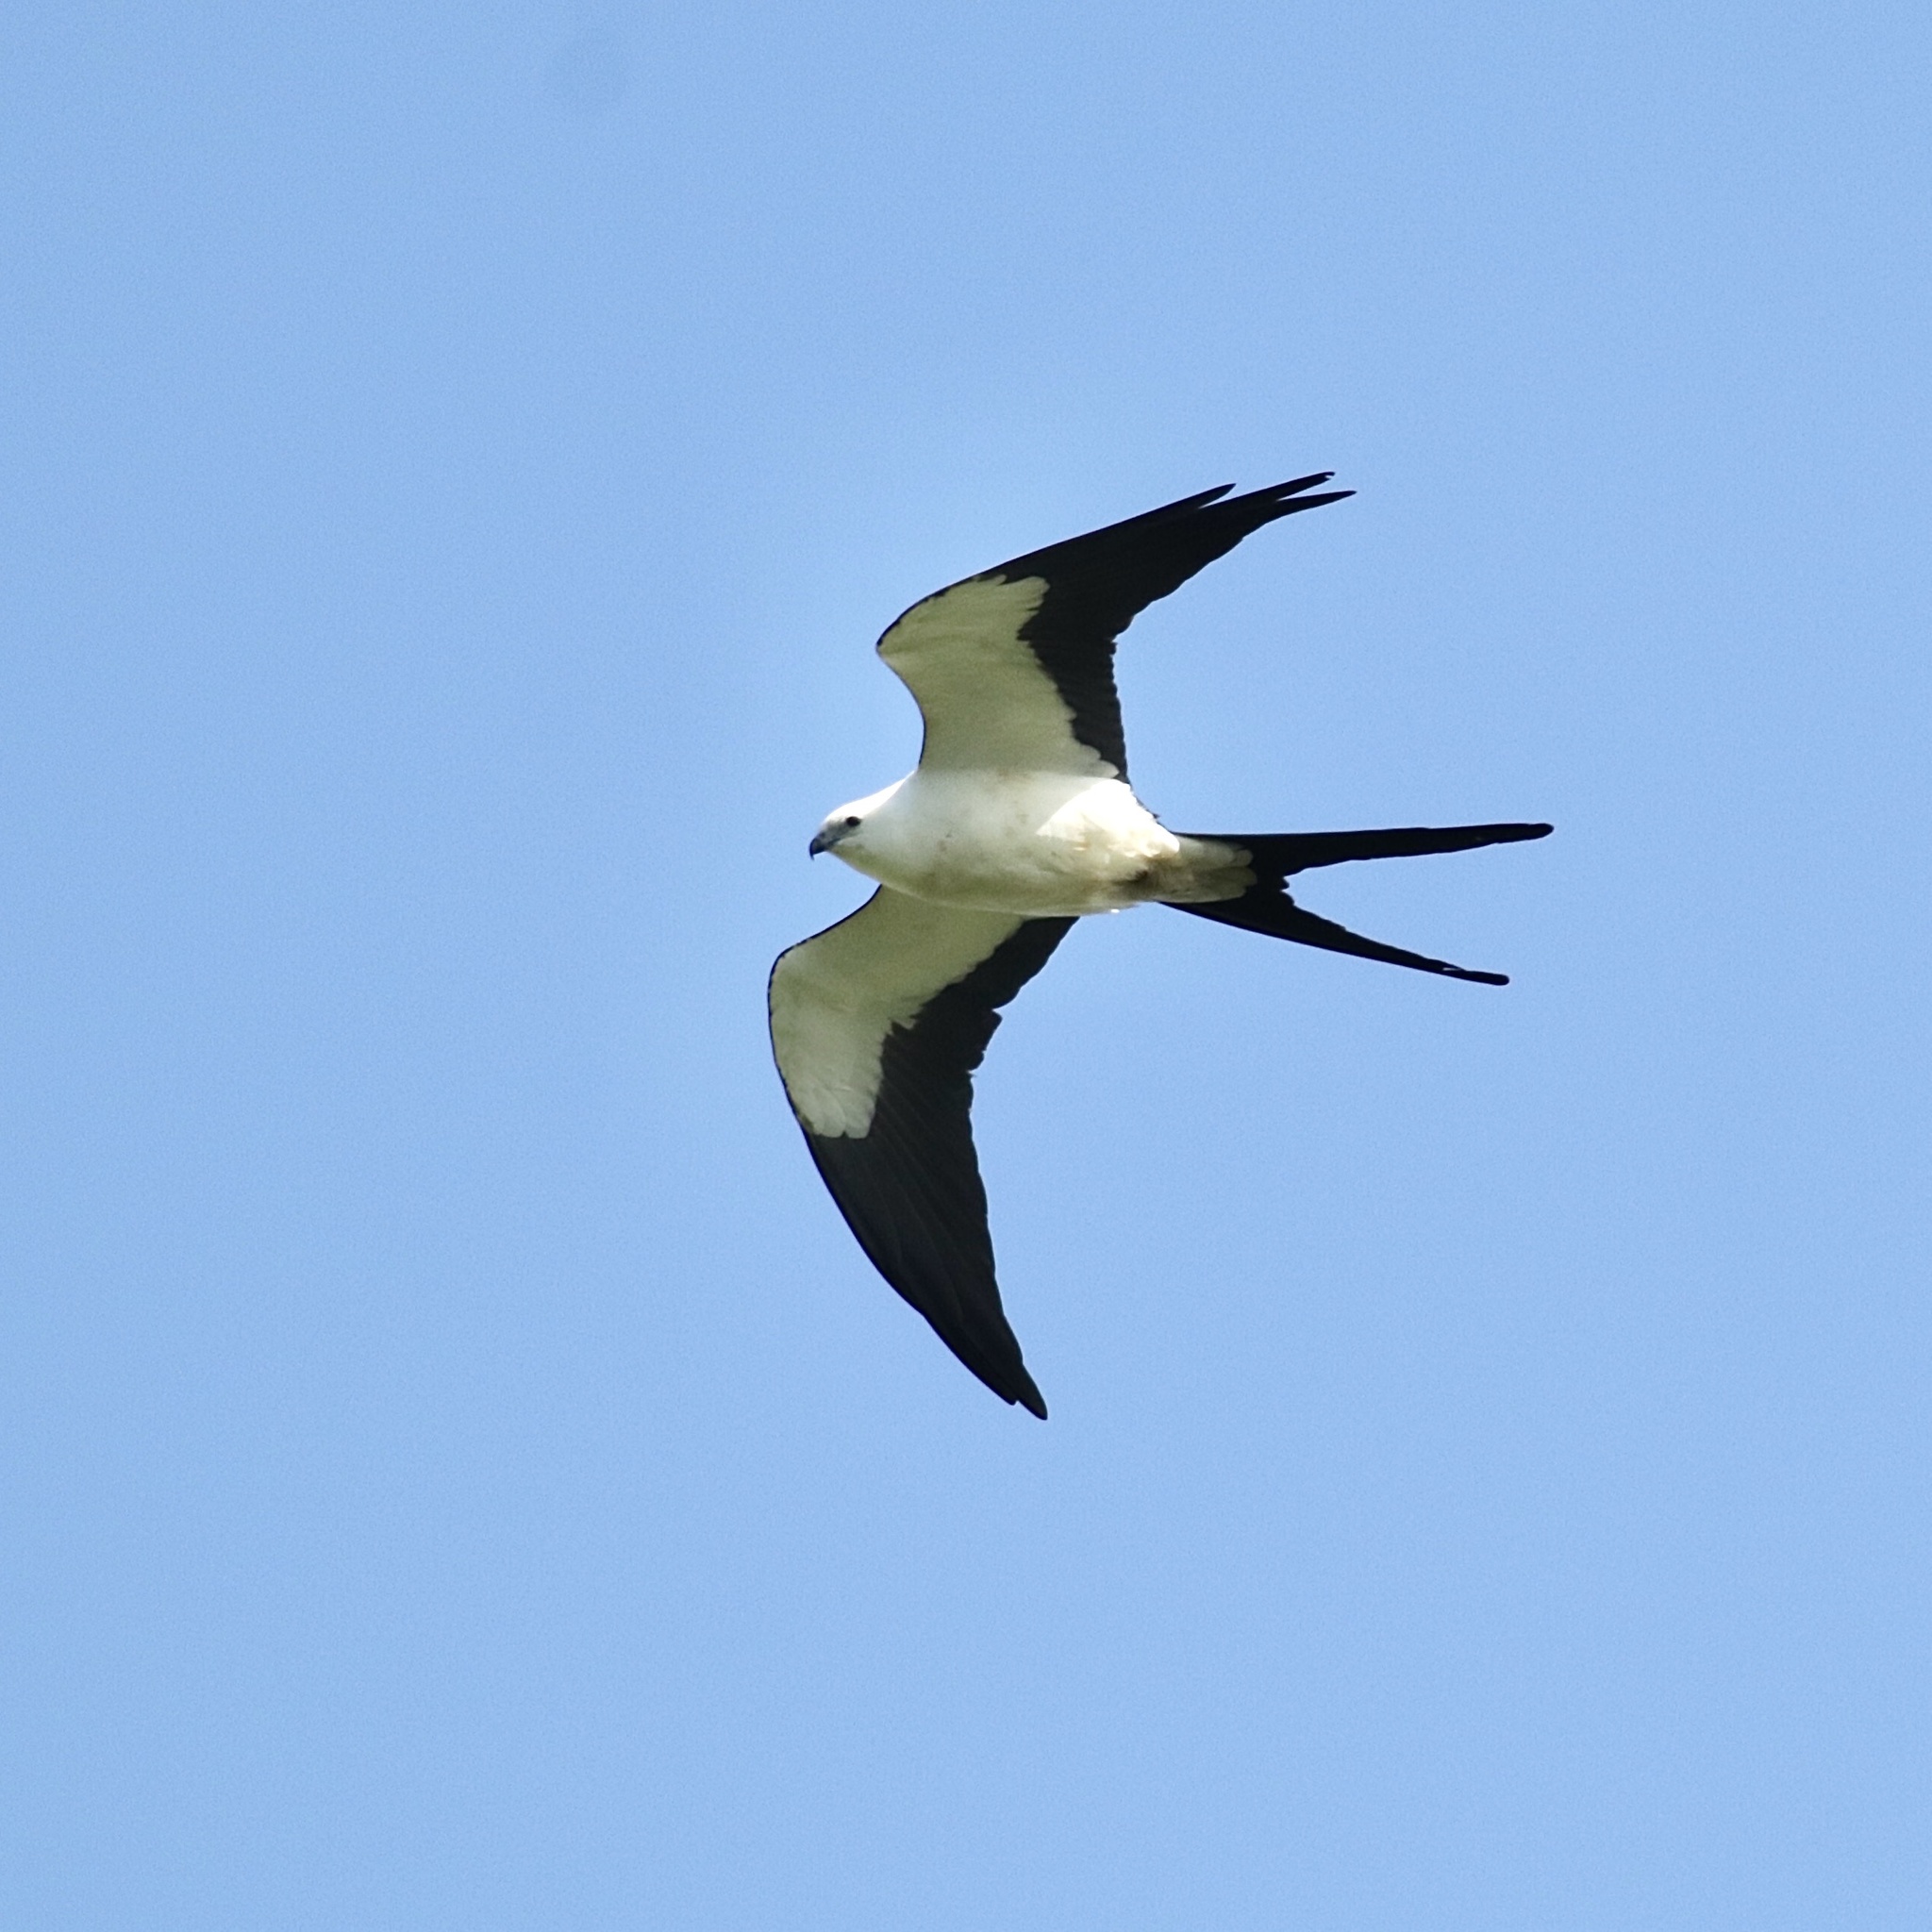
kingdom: Animalia
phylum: Chordata
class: Aves
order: Accipitriformes
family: Accipitridae
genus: Elanoides
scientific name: Elanoides forficatus
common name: Swallow-tailed kite
